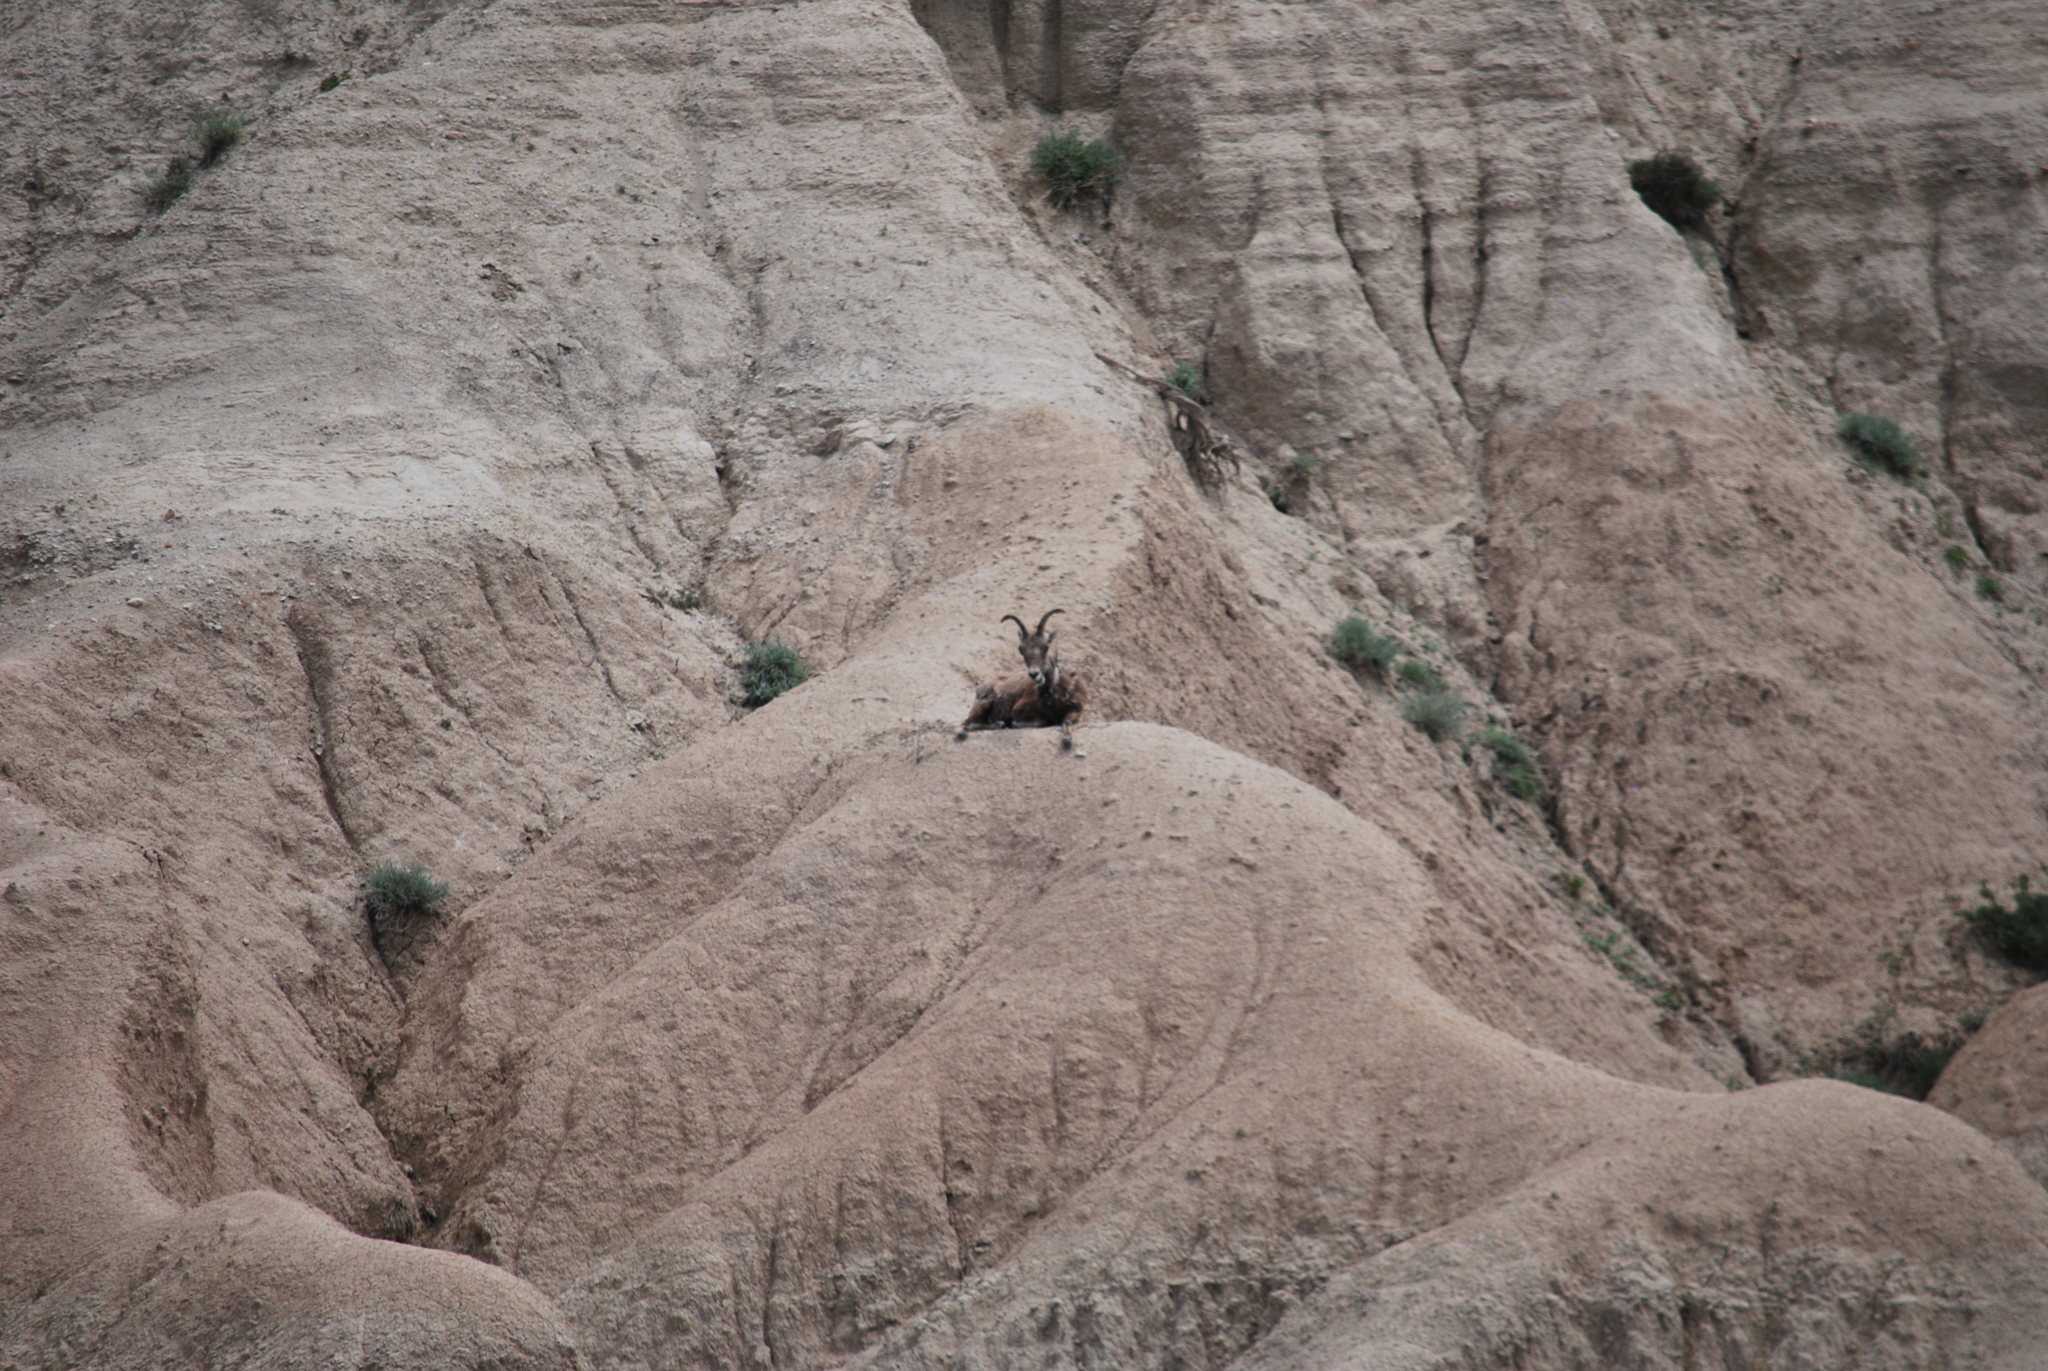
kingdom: Animalia
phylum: Chordata
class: Mammalia
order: Artiodactyla
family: Bovidae
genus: Ovis
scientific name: Ovis canadensis
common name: Bighorn sheep
